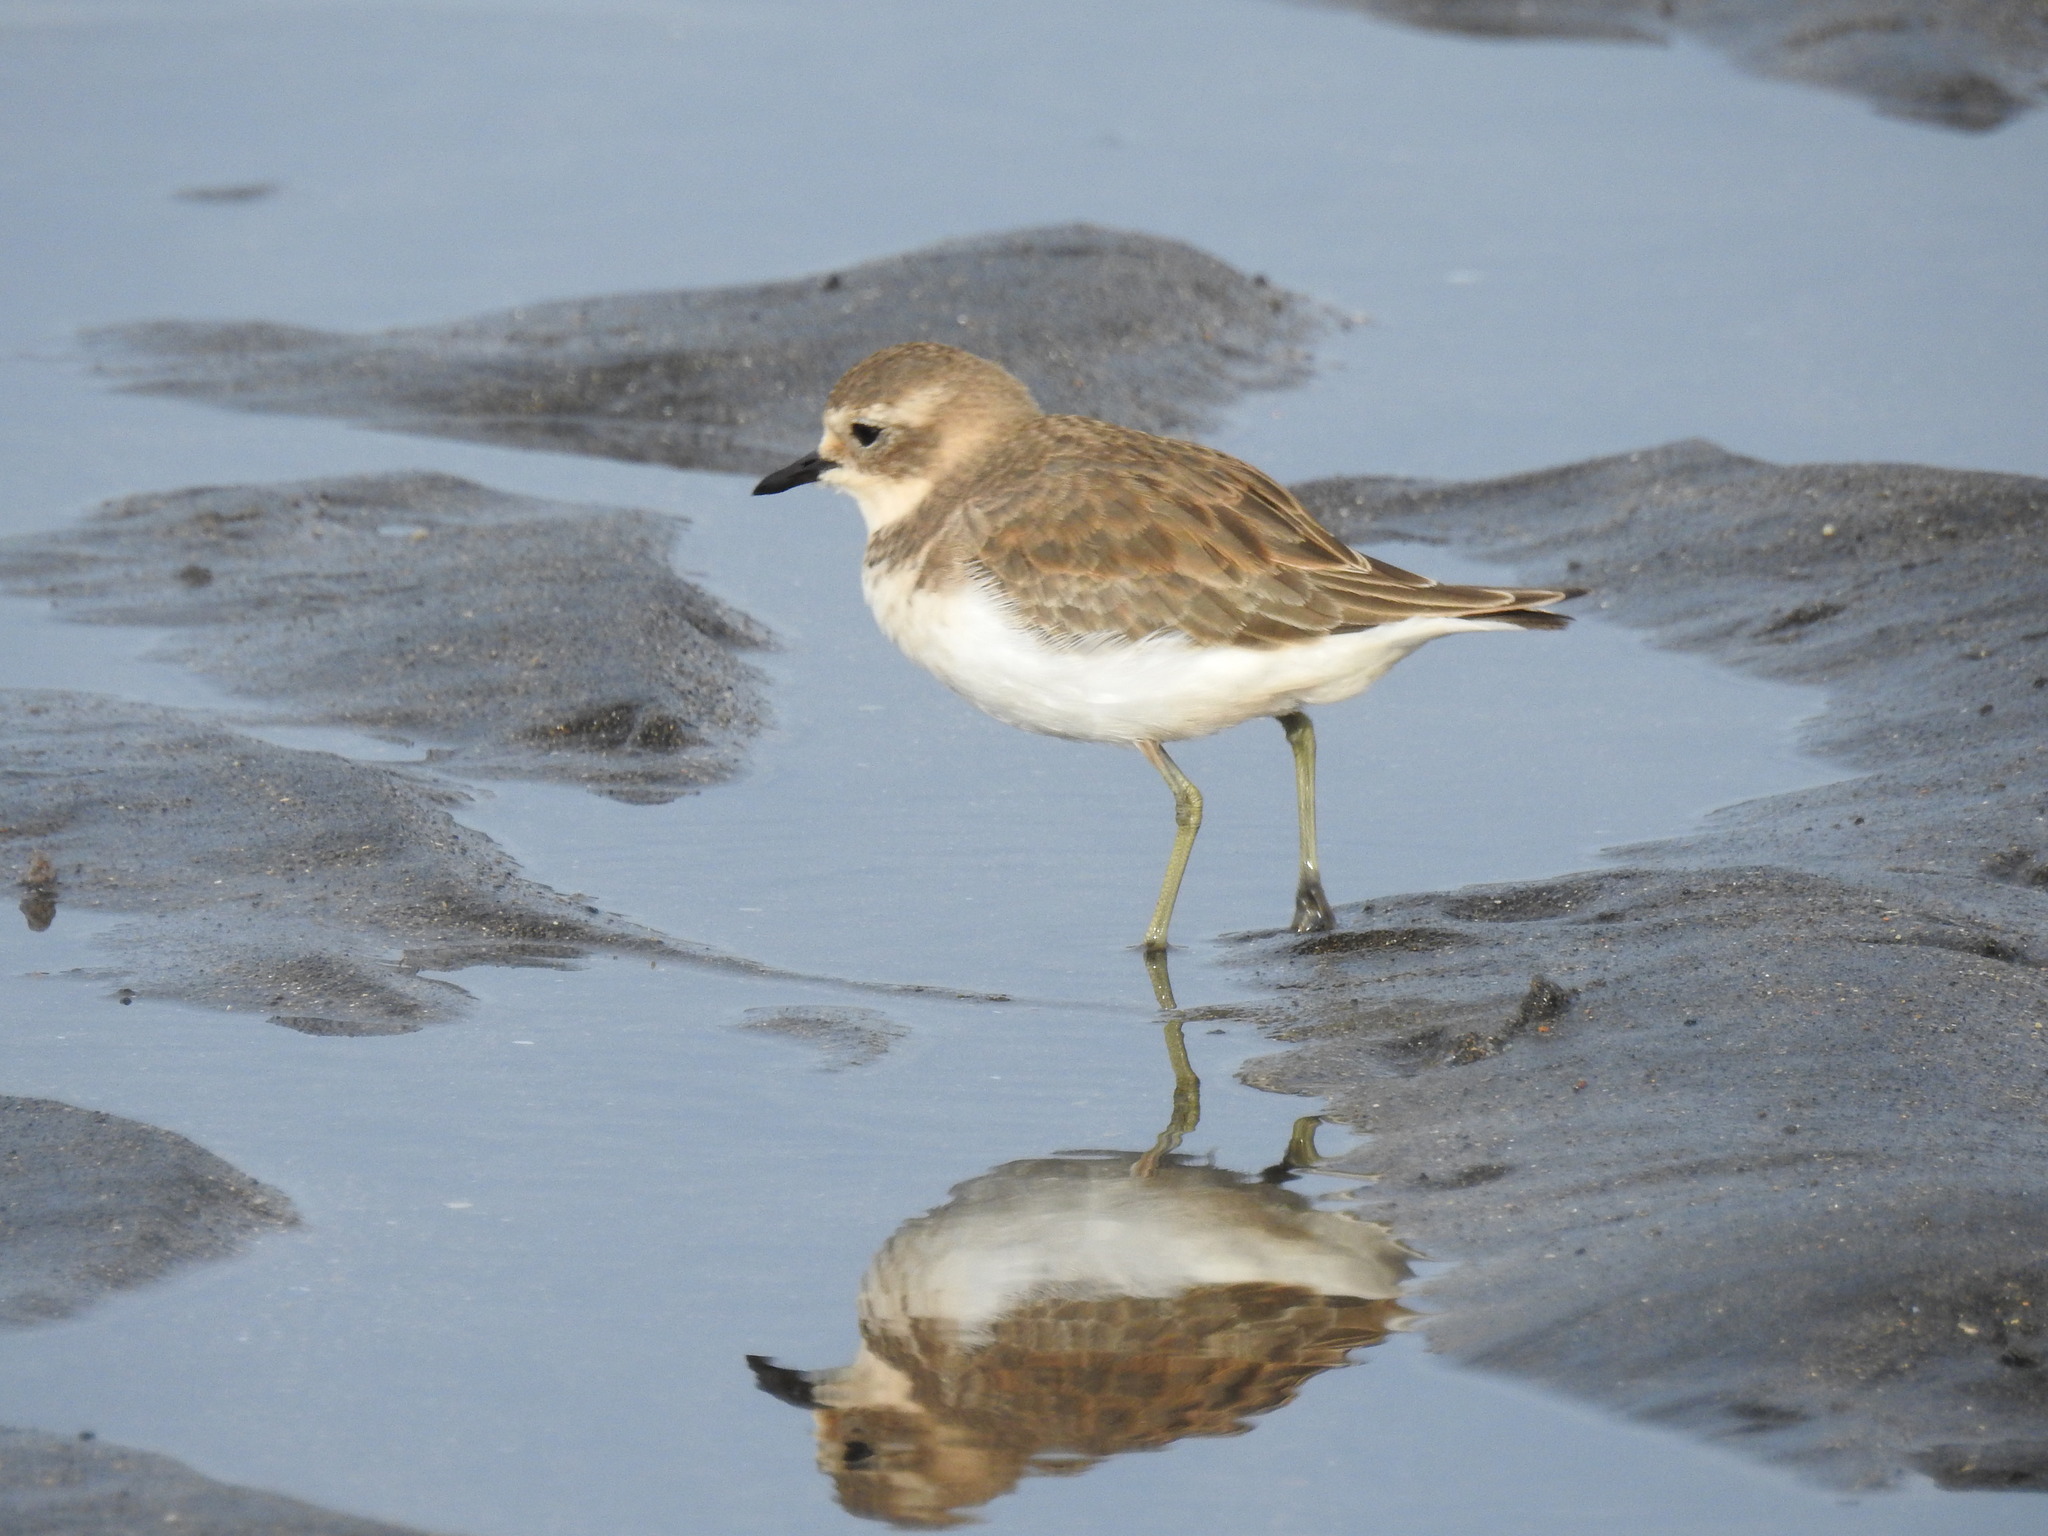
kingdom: Animalia
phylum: Chordata
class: Aves
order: Charadriiformes
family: Charadriidae
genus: Anarhynchus
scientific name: Anarhynchus
